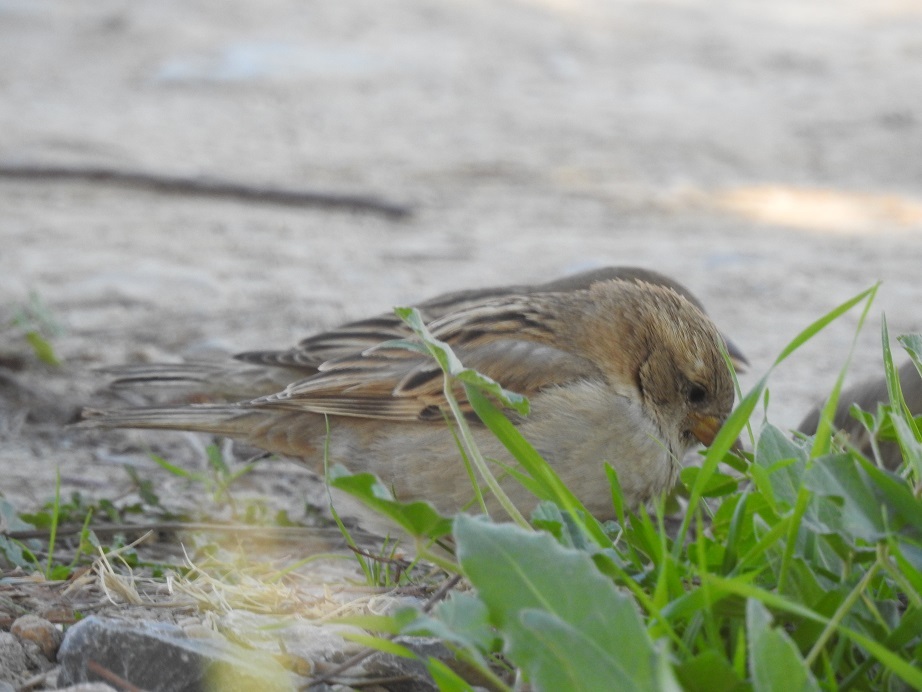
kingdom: Animalia
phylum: Chordata
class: Aves
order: Passeriformes
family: Passeridae
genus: Passer
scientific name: Passer domesticus
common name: House sparrow
